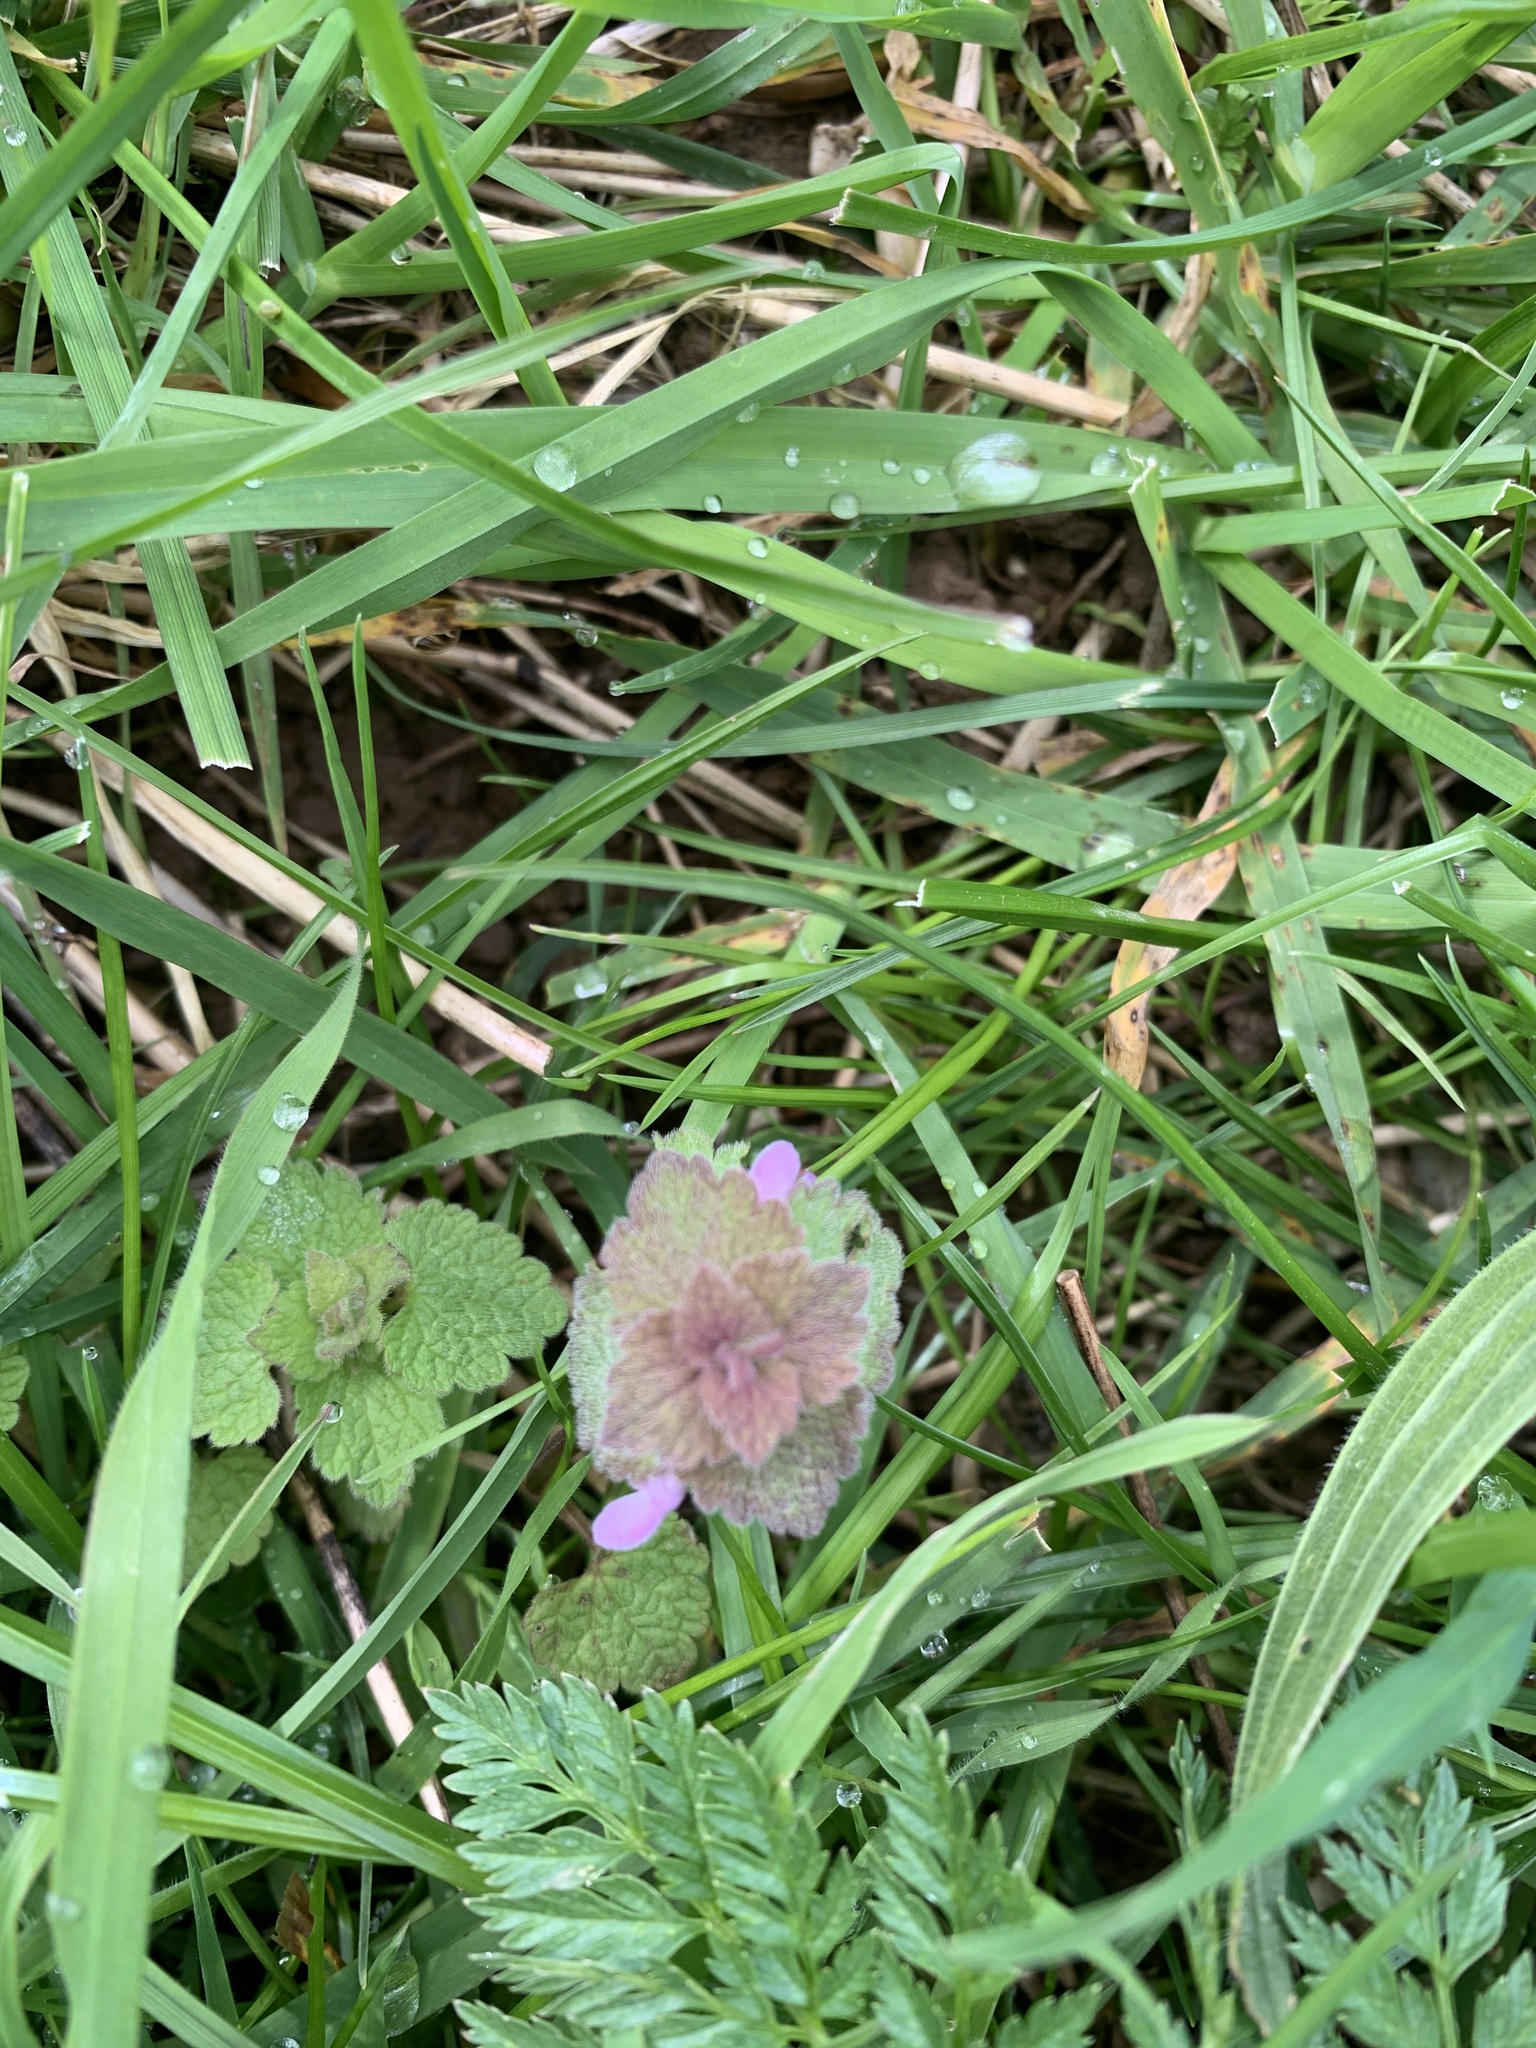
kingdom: Plantae
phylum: Tracheophyta
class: Magnoliopsida
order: Lamiales
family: Lamiaceae
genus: Lamium
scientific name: Lamium purpureum
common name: Red dead-nettle
